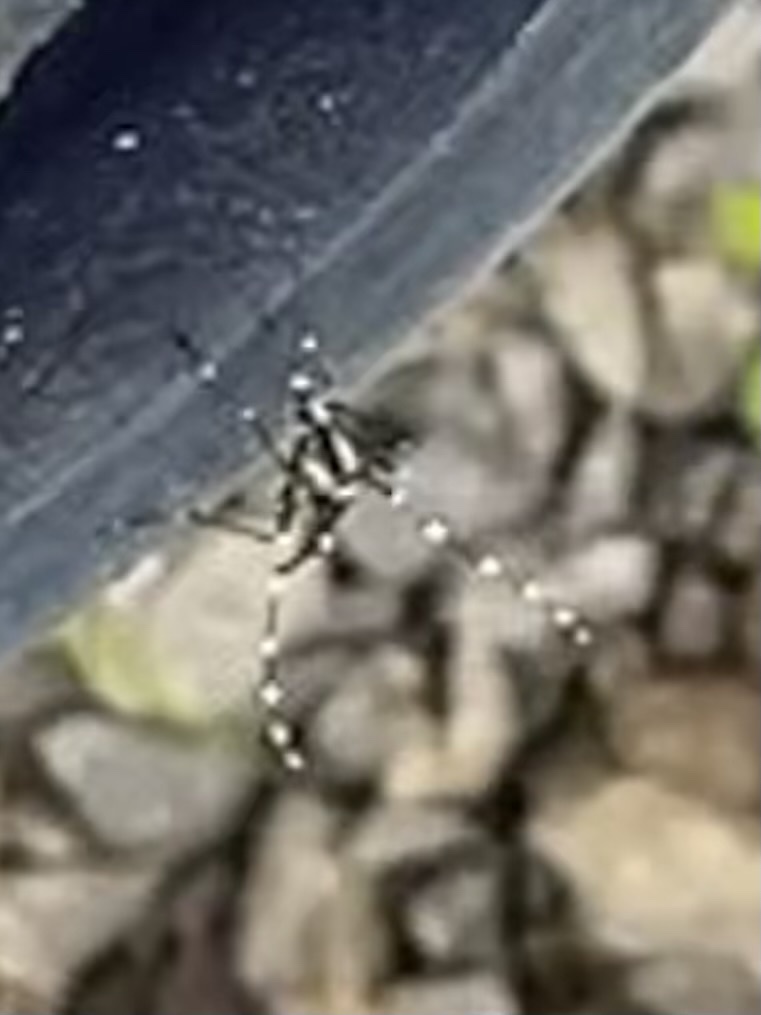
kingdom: Animalia
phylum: Arthropoda
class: Insecta
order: Diptera
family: Culicidae
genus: Aedes
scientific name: Aedes albopictus
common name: Tiger mosquito
